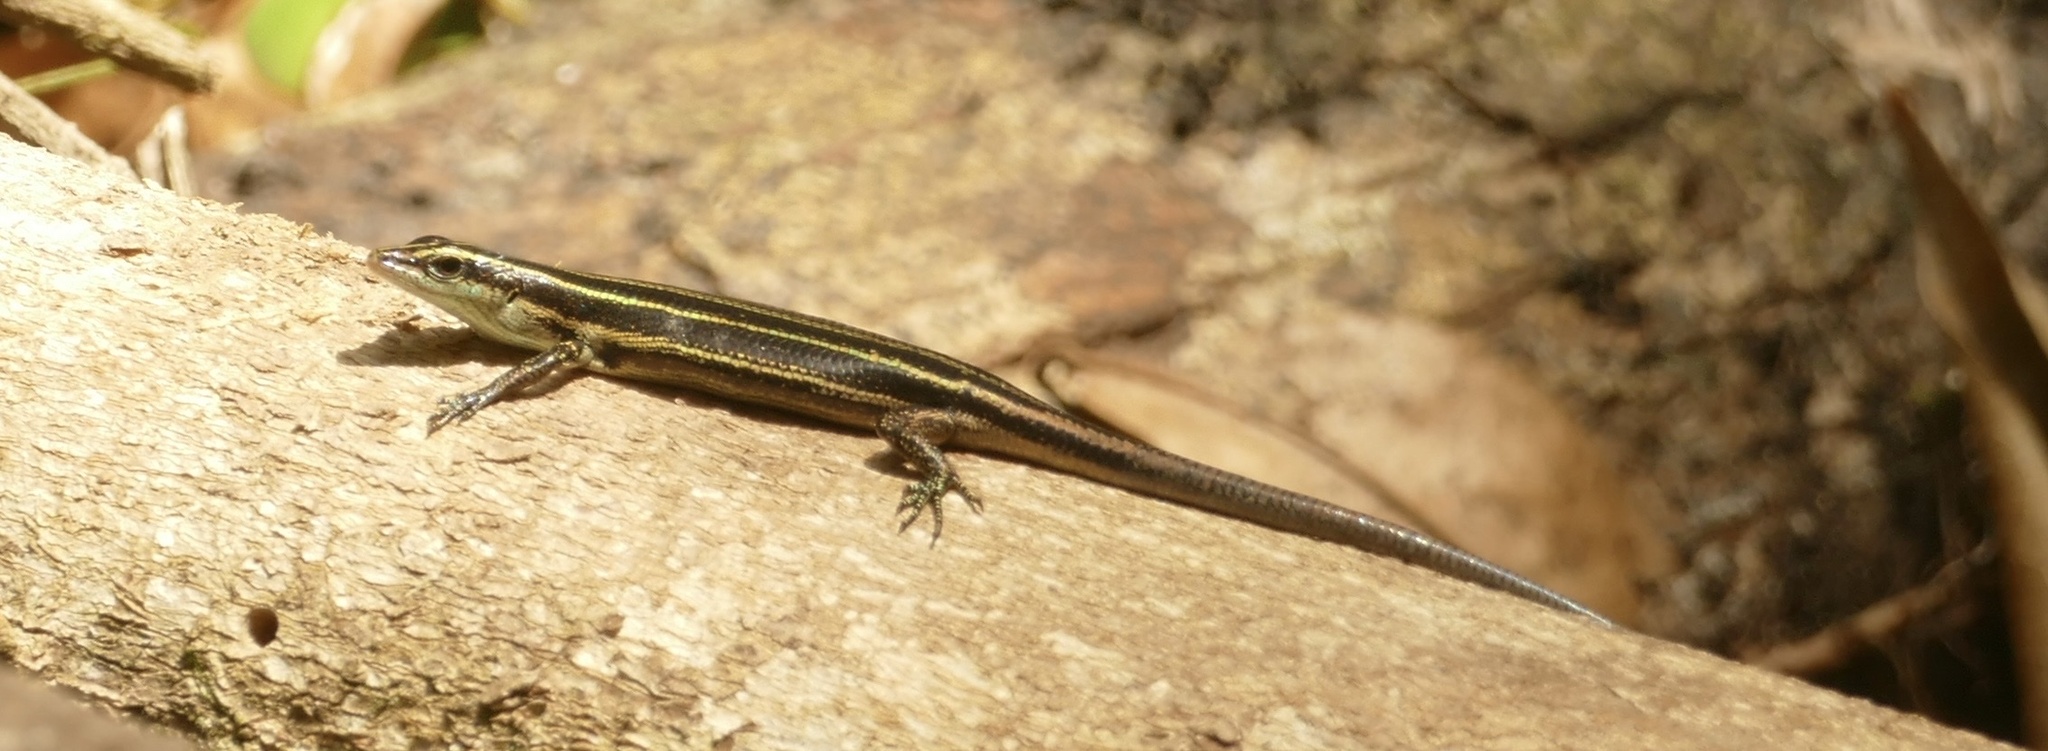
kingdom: Animalia
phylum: Chordata
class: Squamata
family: Scincidae
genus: Emoia
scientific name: Emoia caeruleocauda
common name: Pacific bluetail skink
